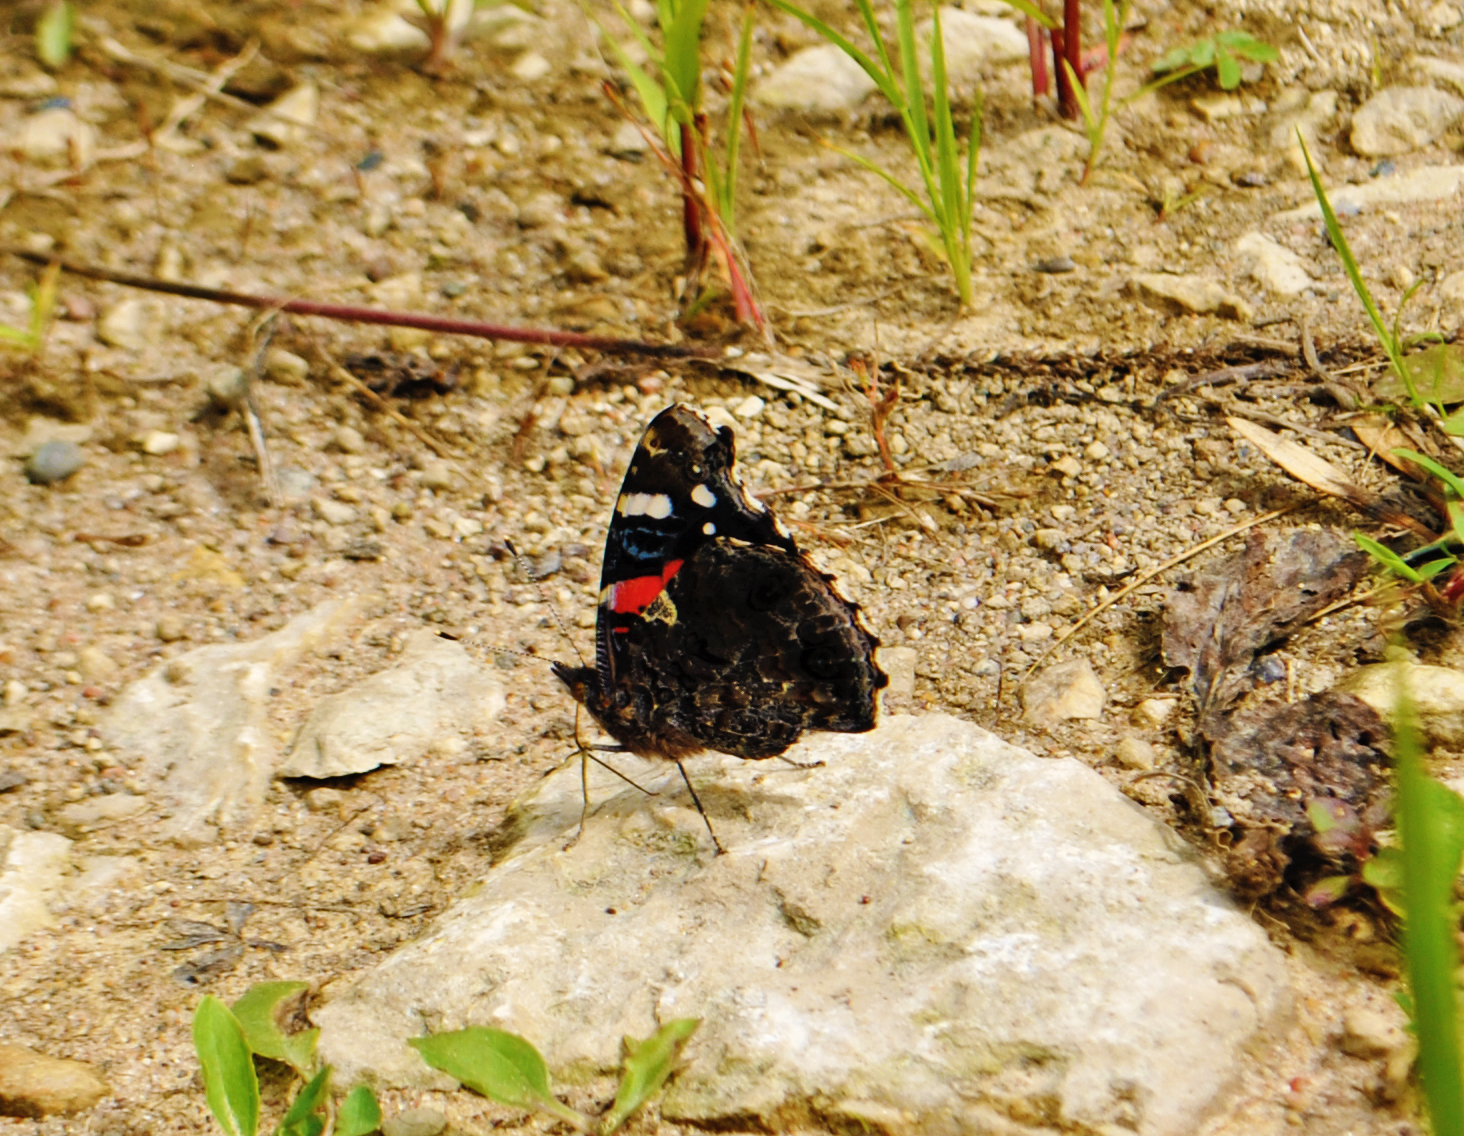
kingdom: Animalia
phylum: Arthropoda
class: Insecta
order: Lepidoptera
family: Nymphalidae
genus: Vanessa
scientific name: Vanessa atalanta
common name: Red admiral
